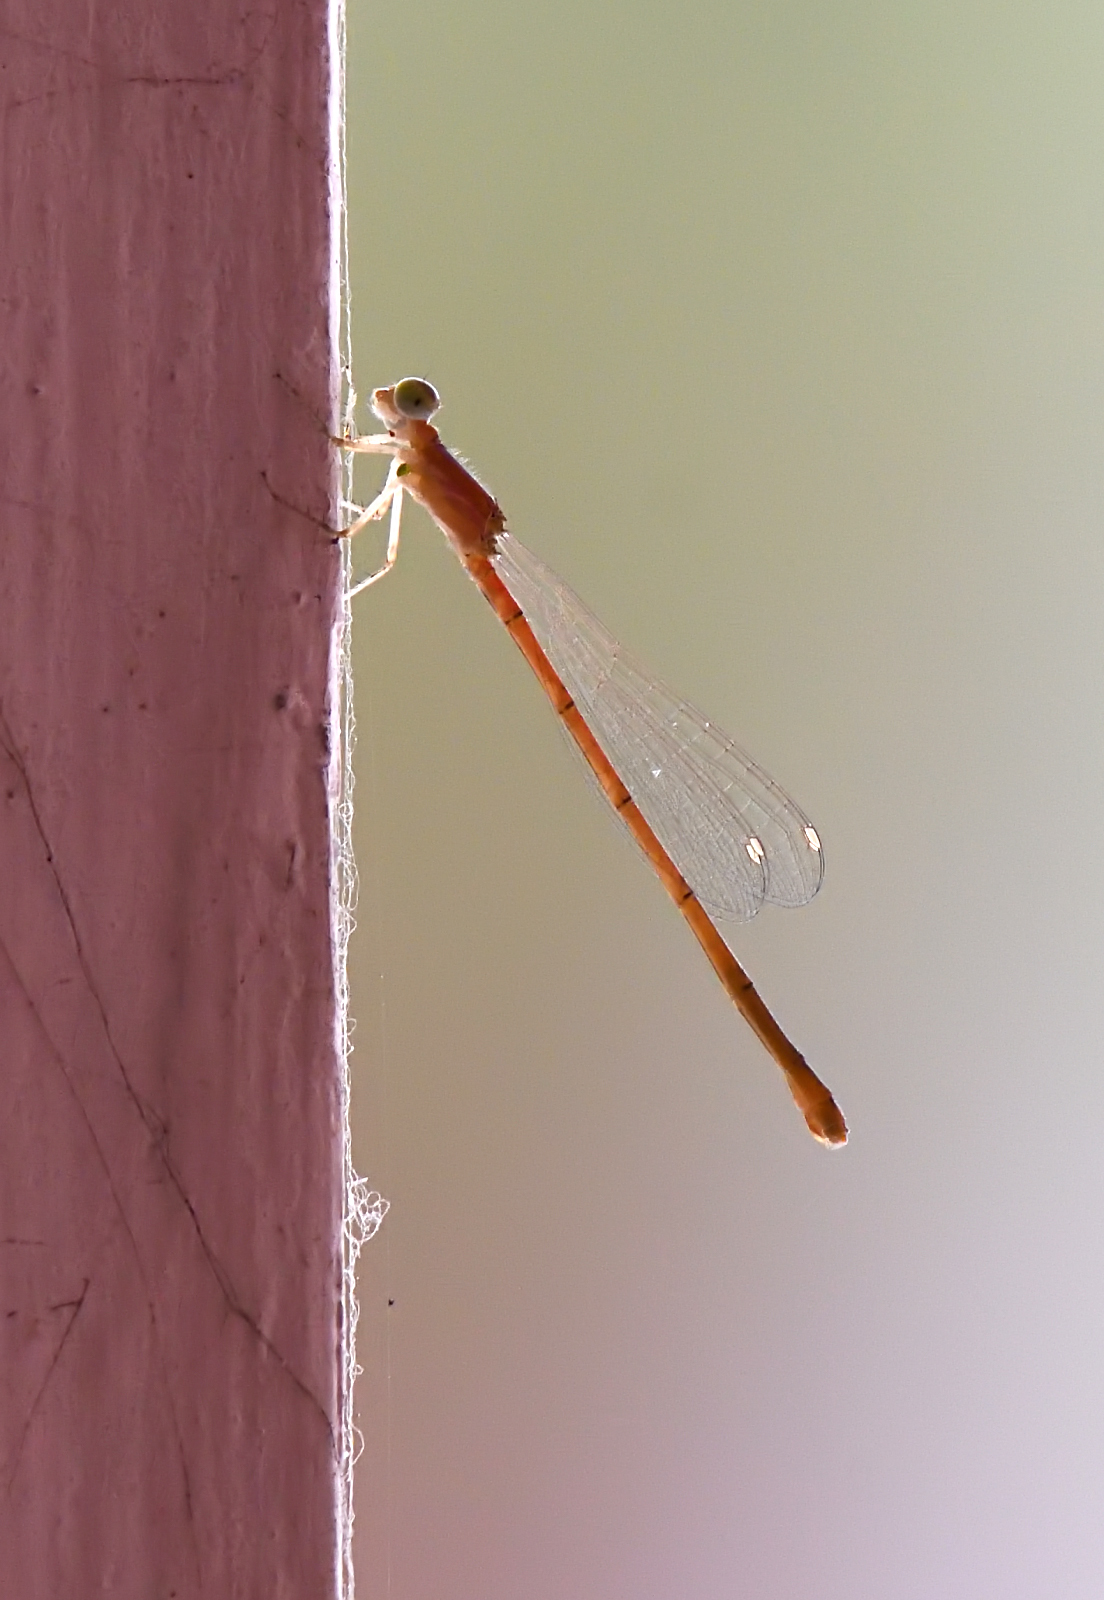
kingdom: Animalia
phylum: Arthropoda
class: Insecta
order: Odonata
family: Coenagrionidae
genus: Agriocnemis
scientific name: Agriocnemis pygmaea
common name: Pygmy wisp
